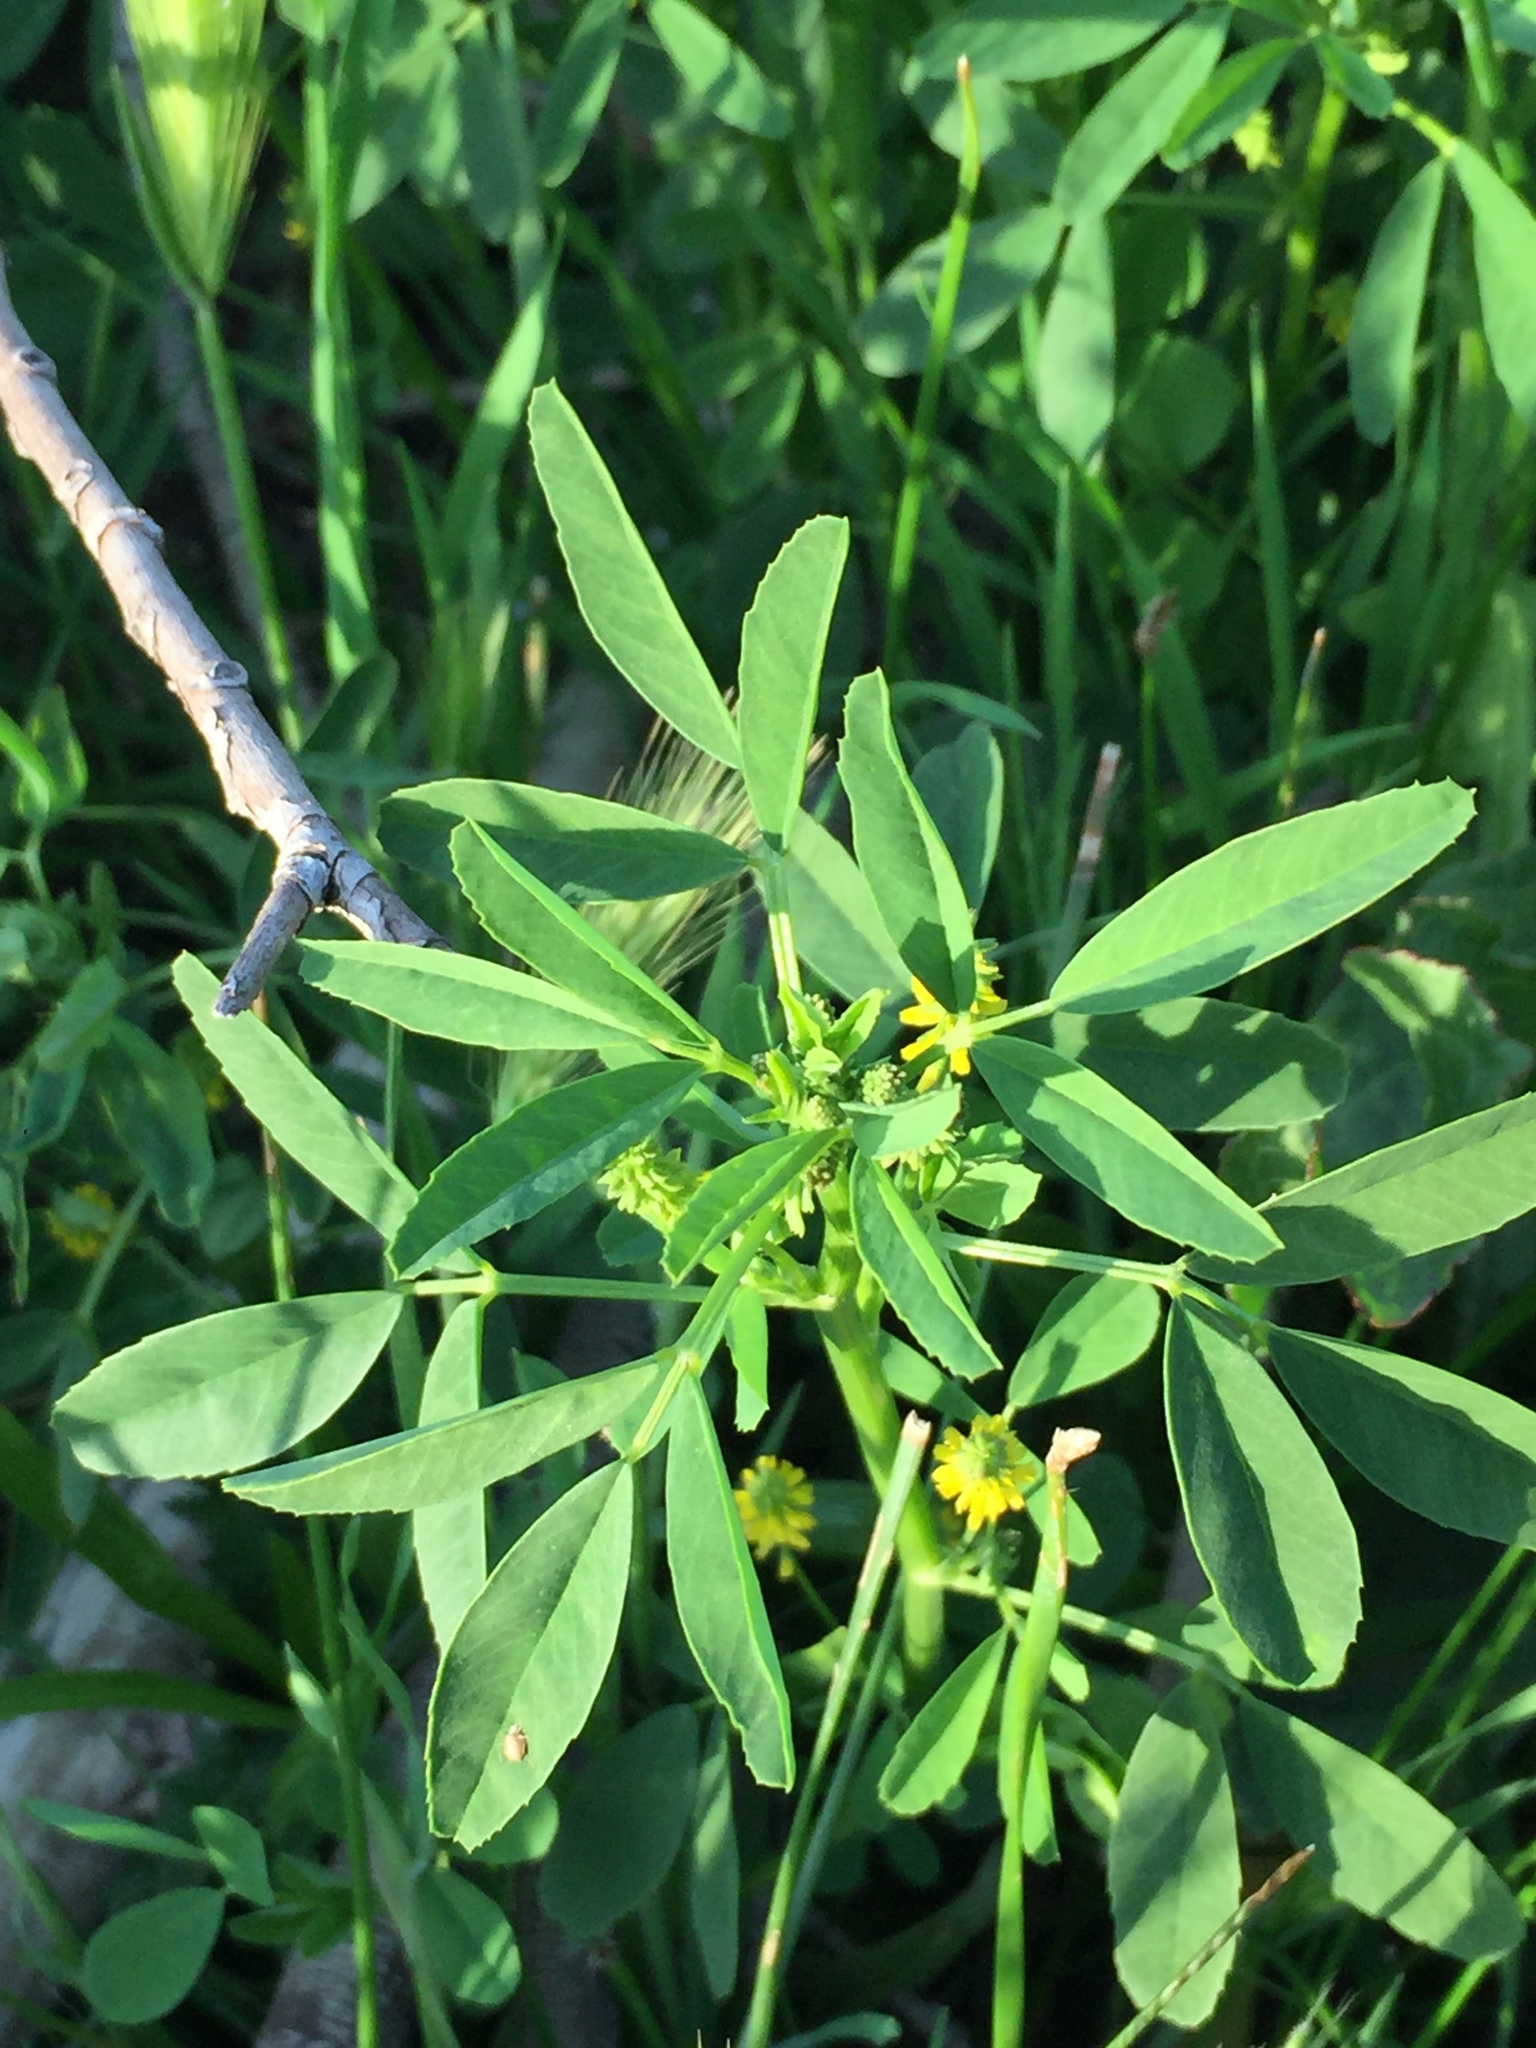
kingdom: Plantae
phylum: Tracheophyta
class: Magnoliopsida
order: Fabales
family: Fabaceae
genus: Melilotus
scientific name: Melilotus indicus
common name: Small melilot
